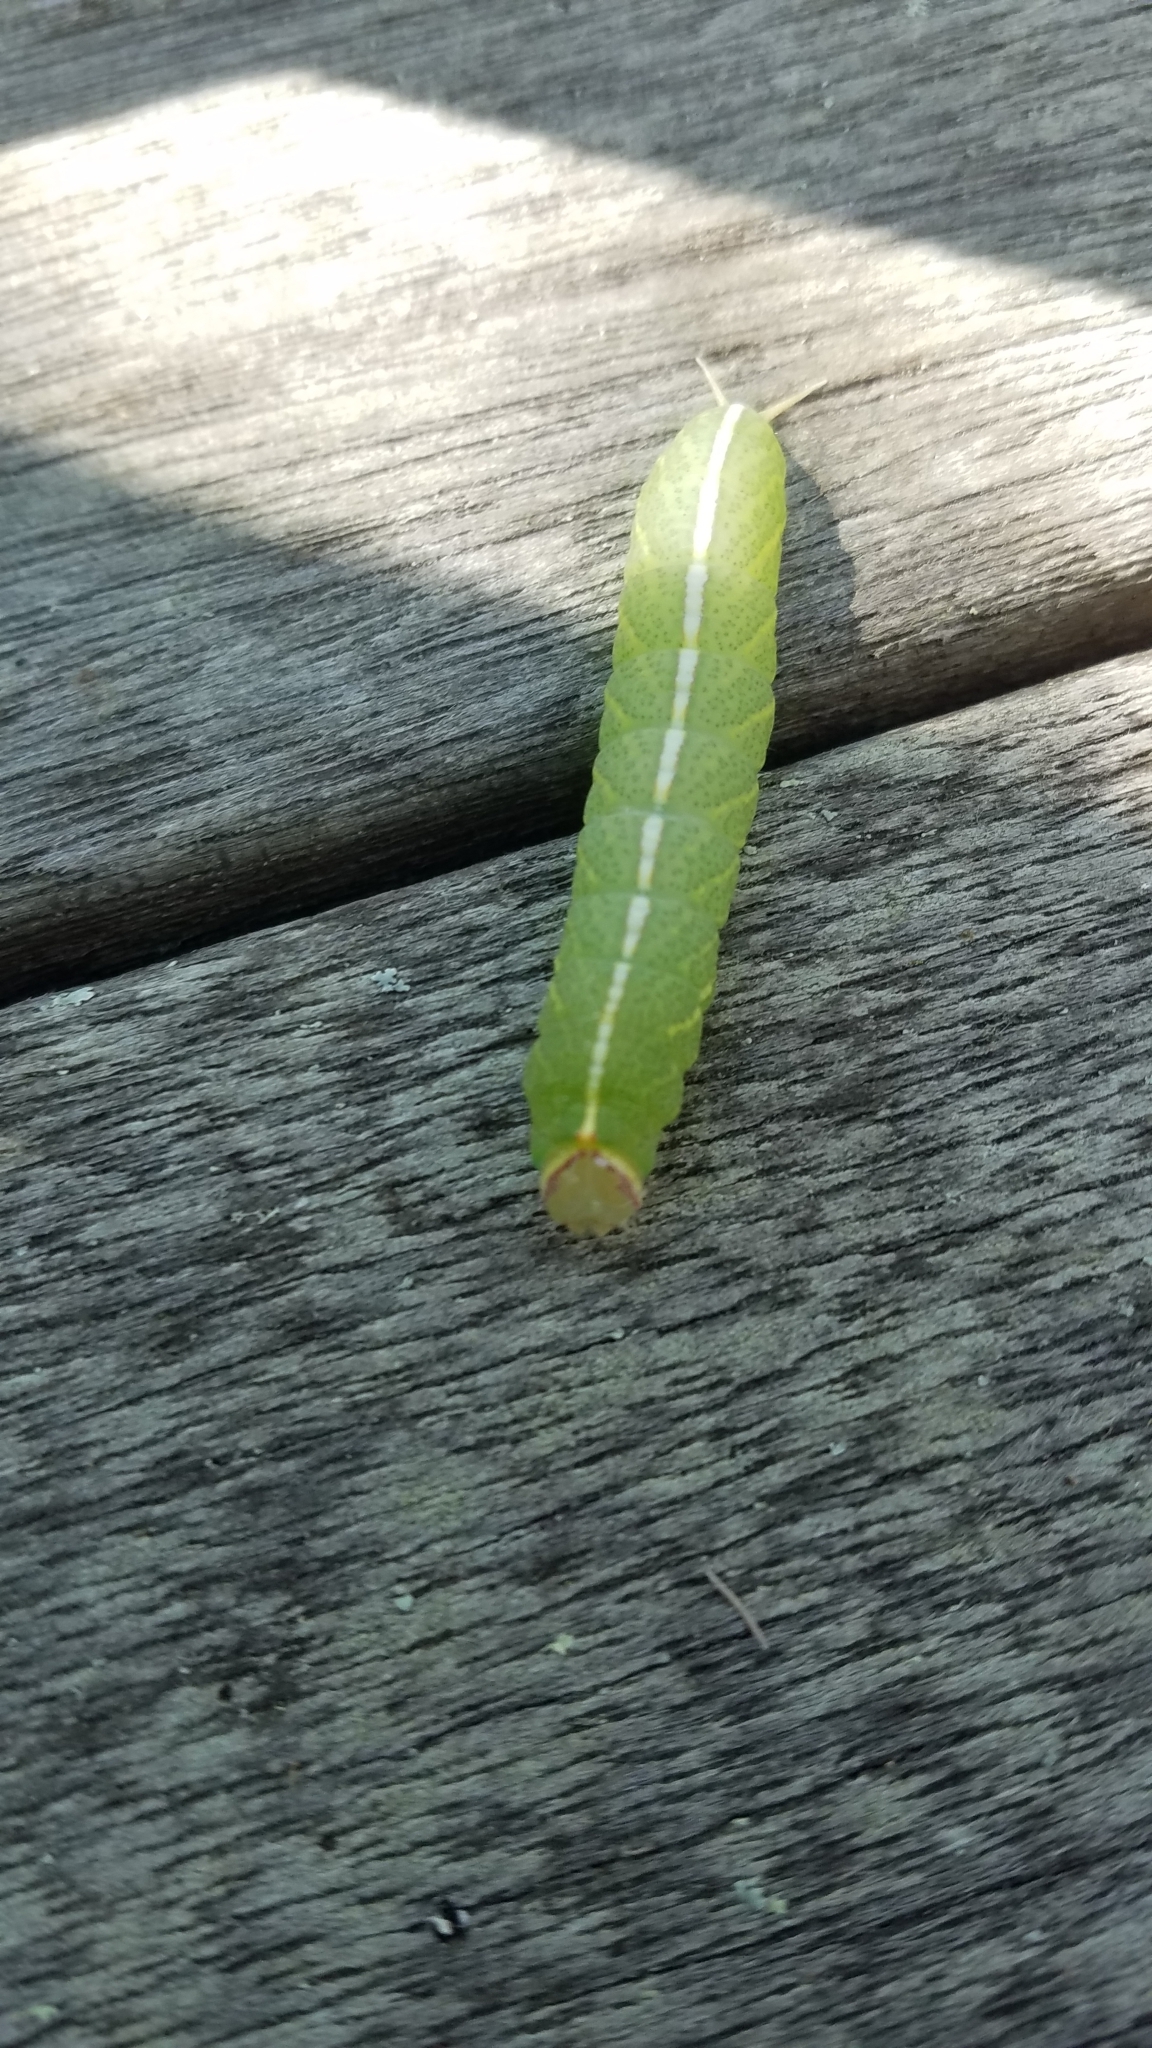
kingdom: Animalia
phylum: Arthropoda
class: Insecta
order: Lepidoptera
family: Notodontidae
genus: Macrurocampa
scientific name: Macrurocampa marthesia
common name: Mottled prominent
